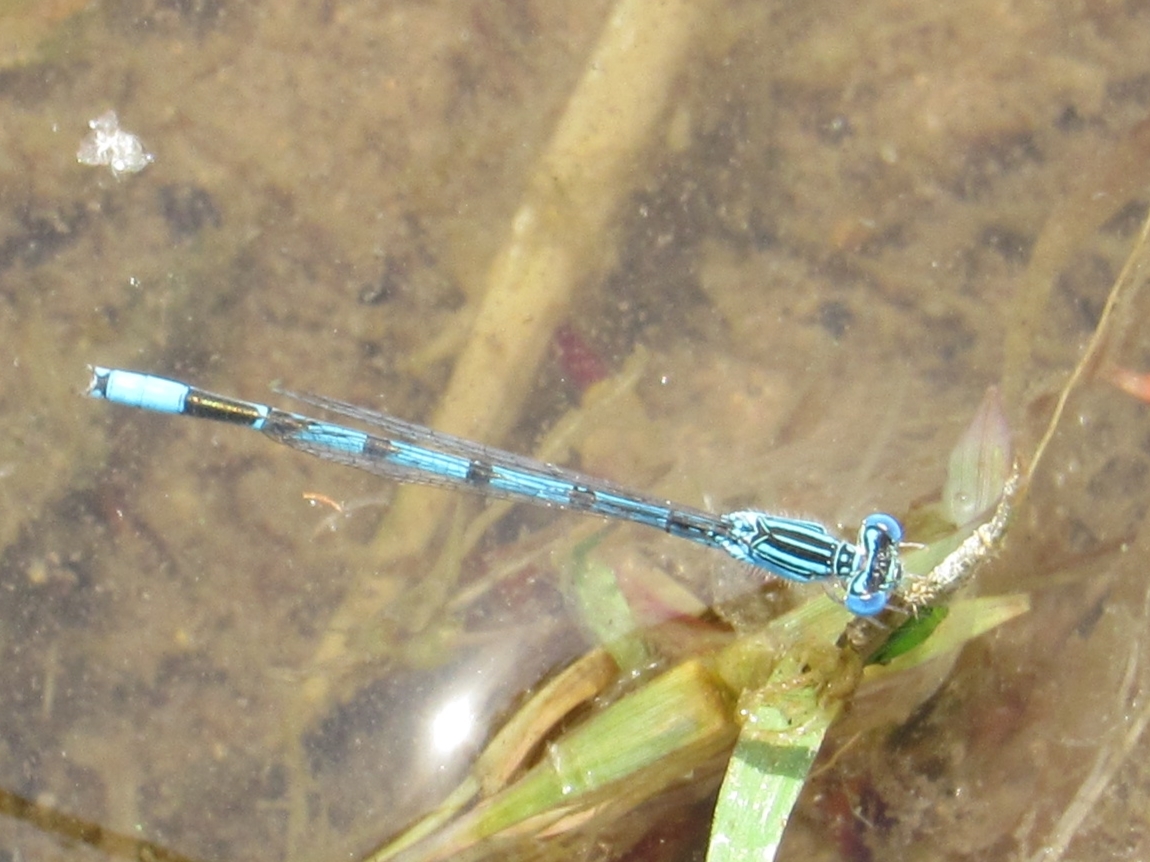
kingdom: Animalia
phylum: Arthropoda
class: Insecta
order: Odonata
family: Coenagrionidae
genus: Enallagma
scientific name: Enallagma basidens
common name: Double-striped bluet
